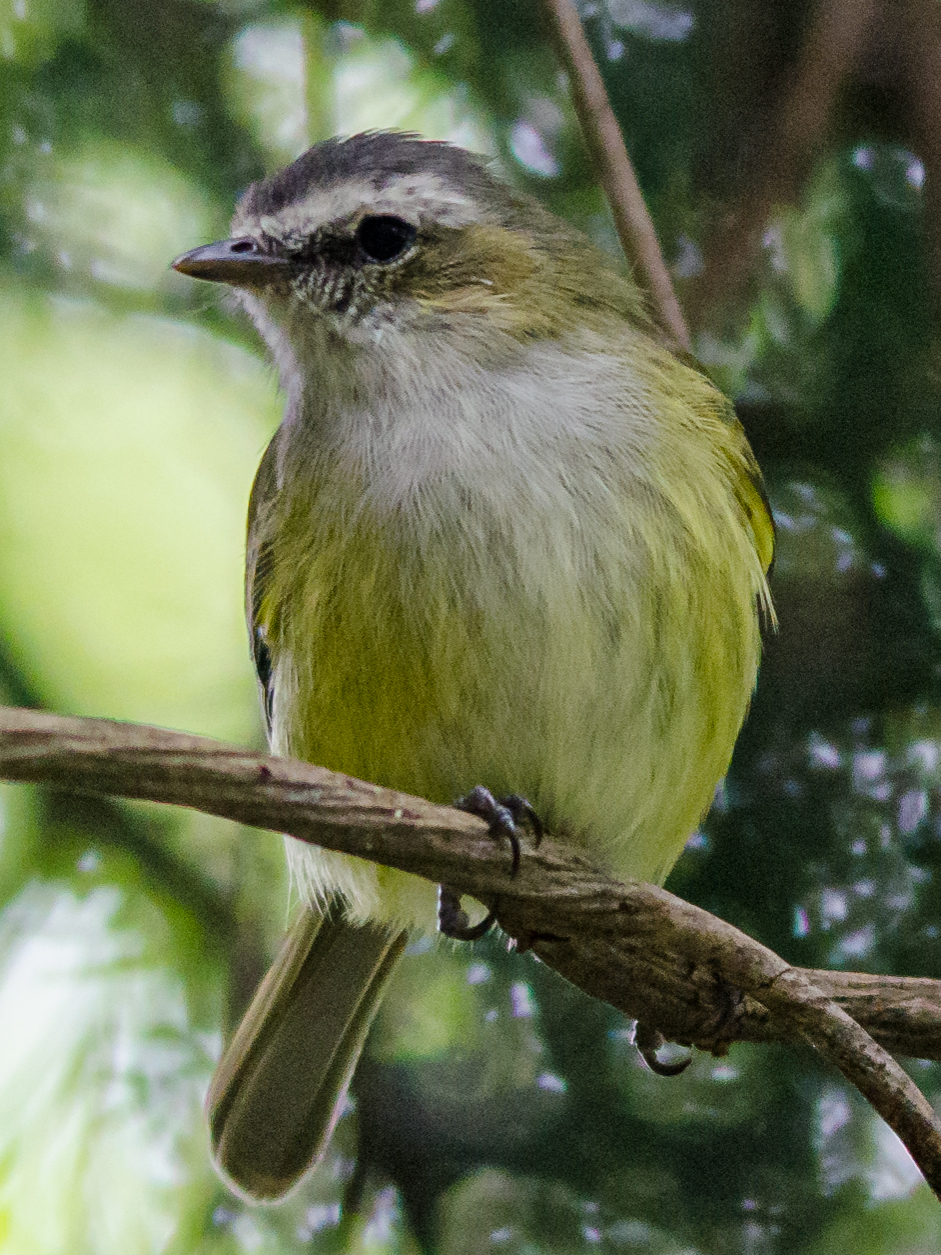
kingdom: Animalia
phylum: Chordata
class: Aves
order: Passeriformes
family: Tyrannidae
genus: Zimmerius
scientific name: Zimmerius vilissimus
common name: Paltry tyrannulet
